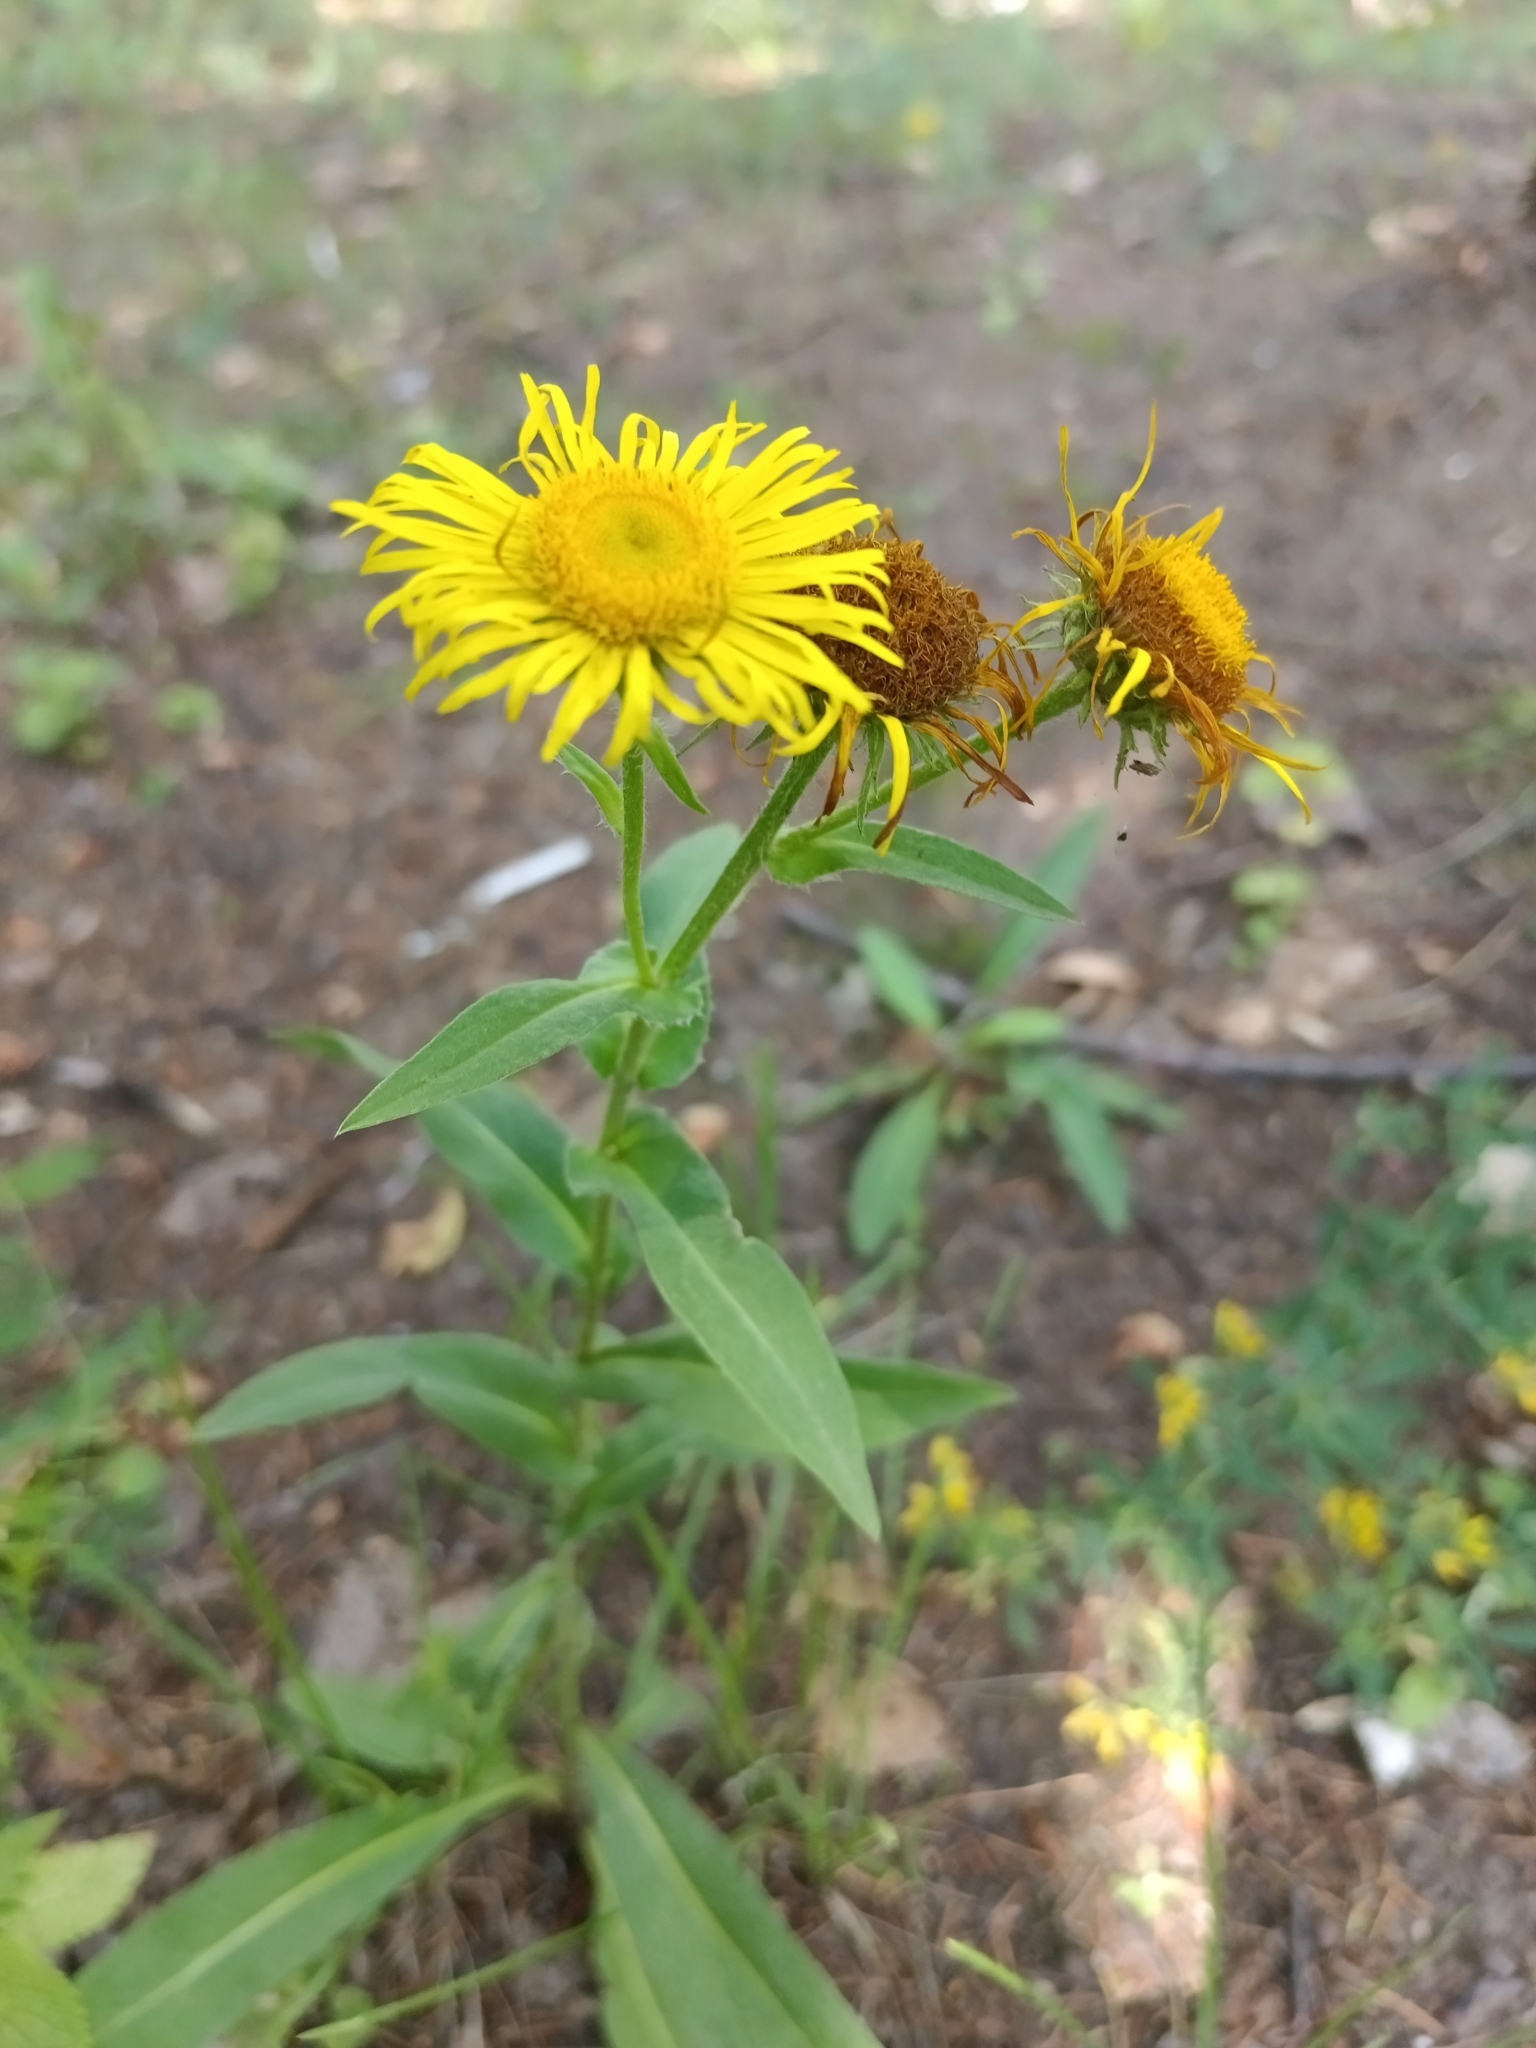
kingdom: Plantae
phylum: Tracheophyta
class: Magnoliopsida
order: Asterales
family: Asteraceae
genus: Pentanema
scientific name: Pentanema britannicum
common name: British elecampane
